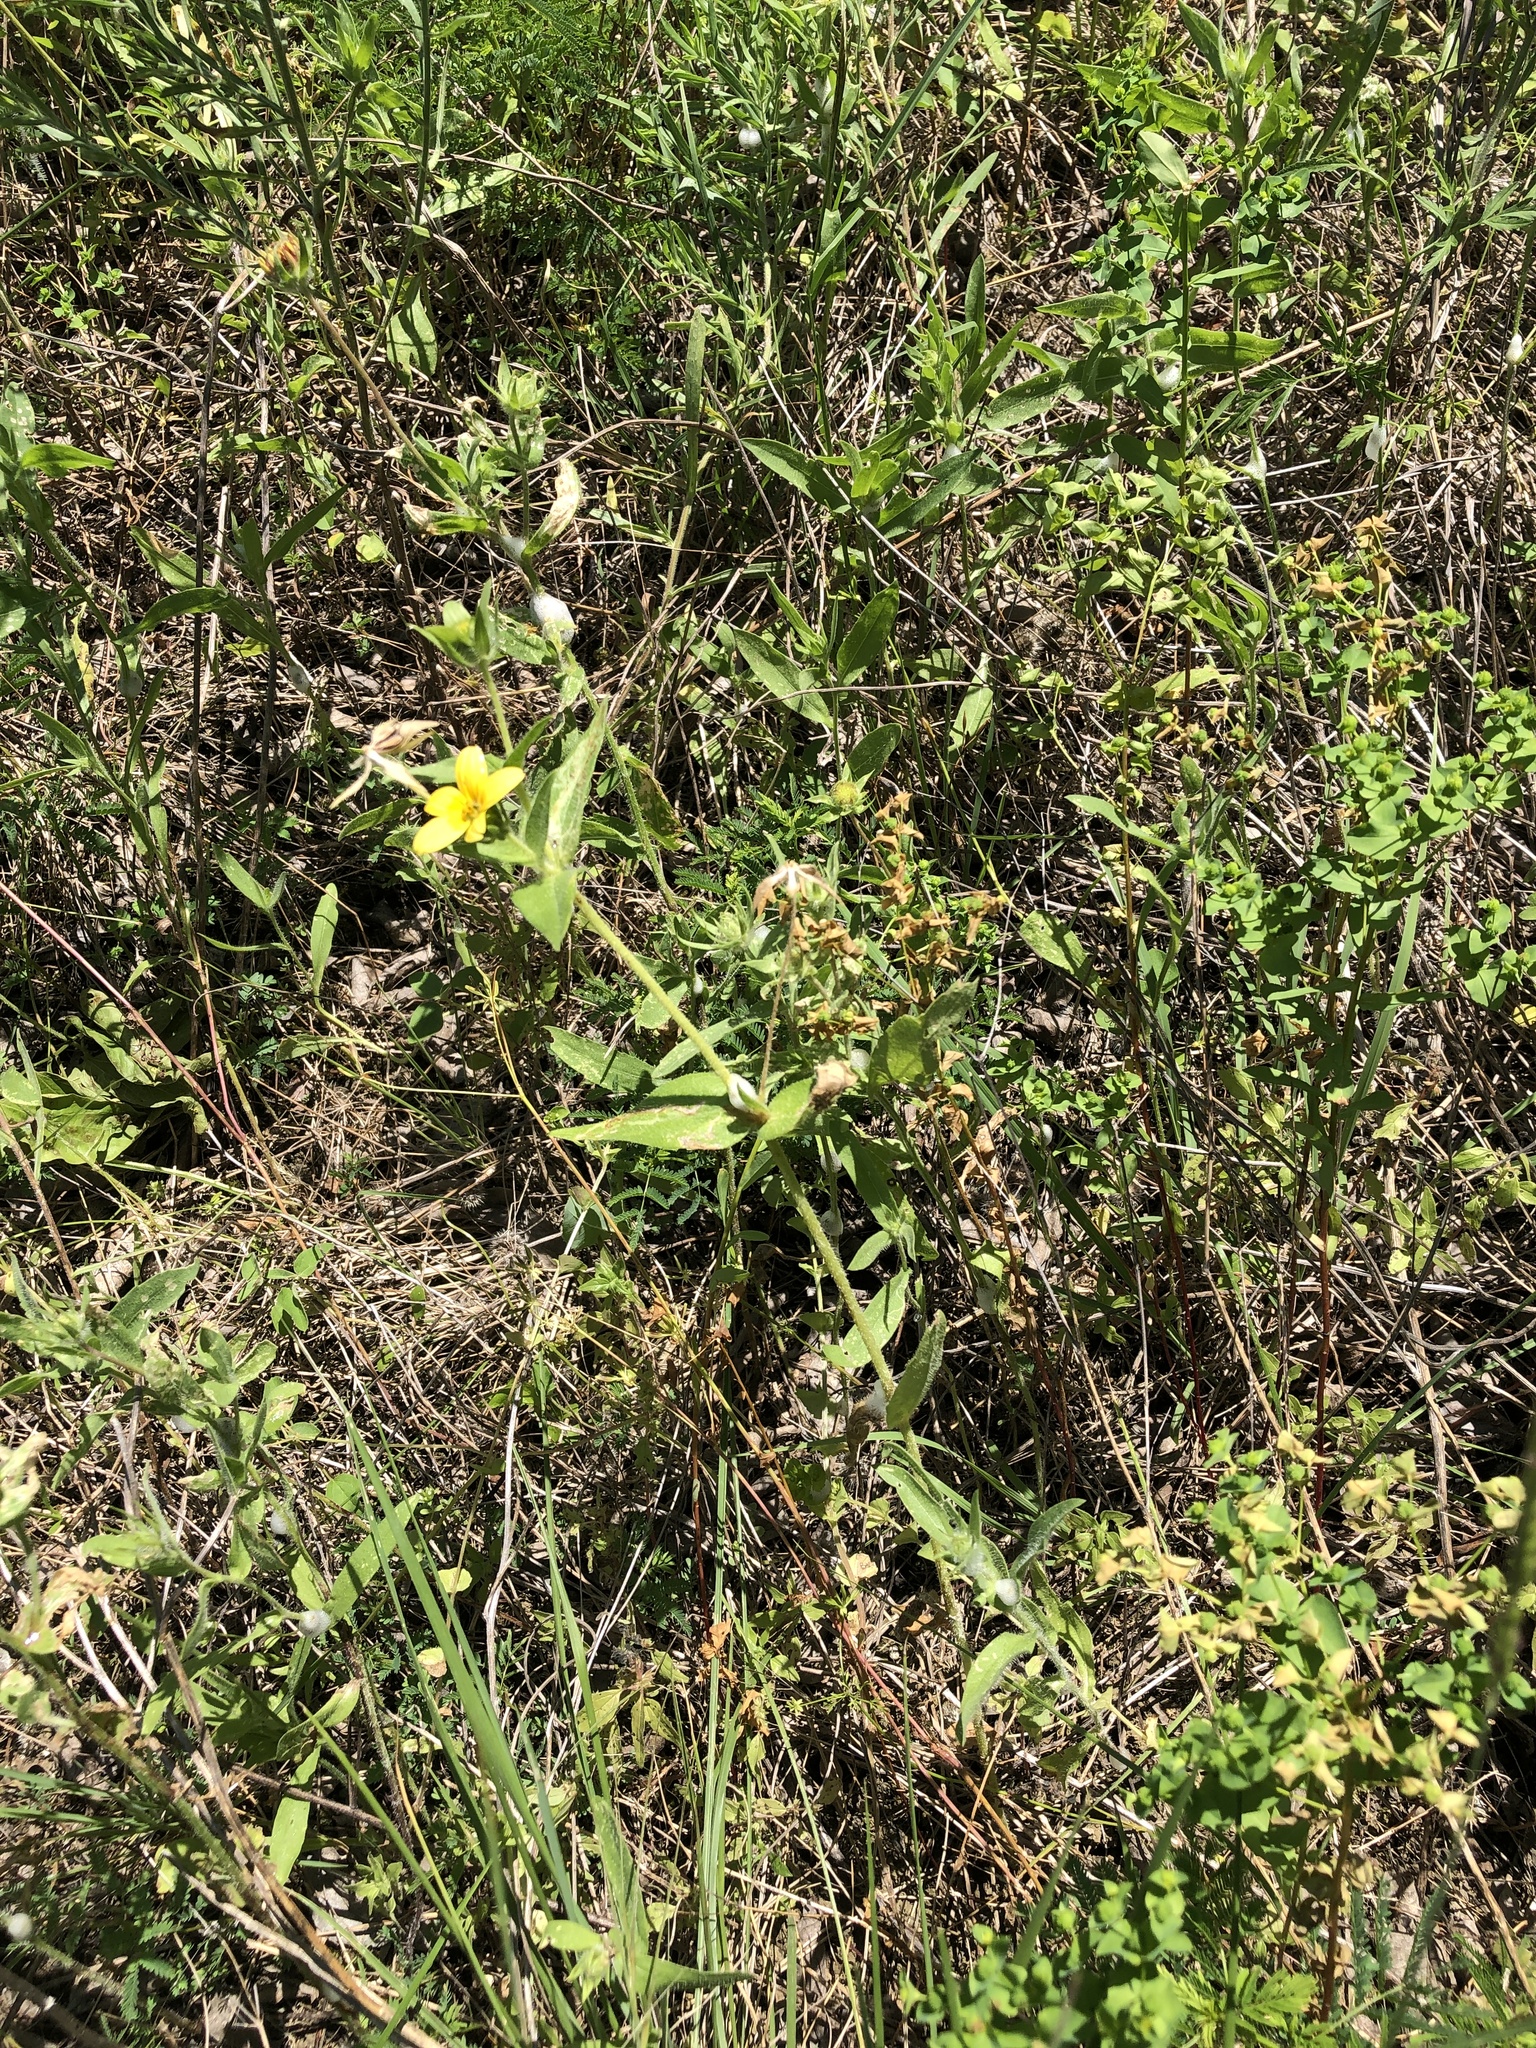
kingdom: Plantae
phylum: Tracheophyta
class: Magnoliopsida
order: Asterales
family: Asteraceae
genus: Lindheimera
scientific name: Lindheimera texana
